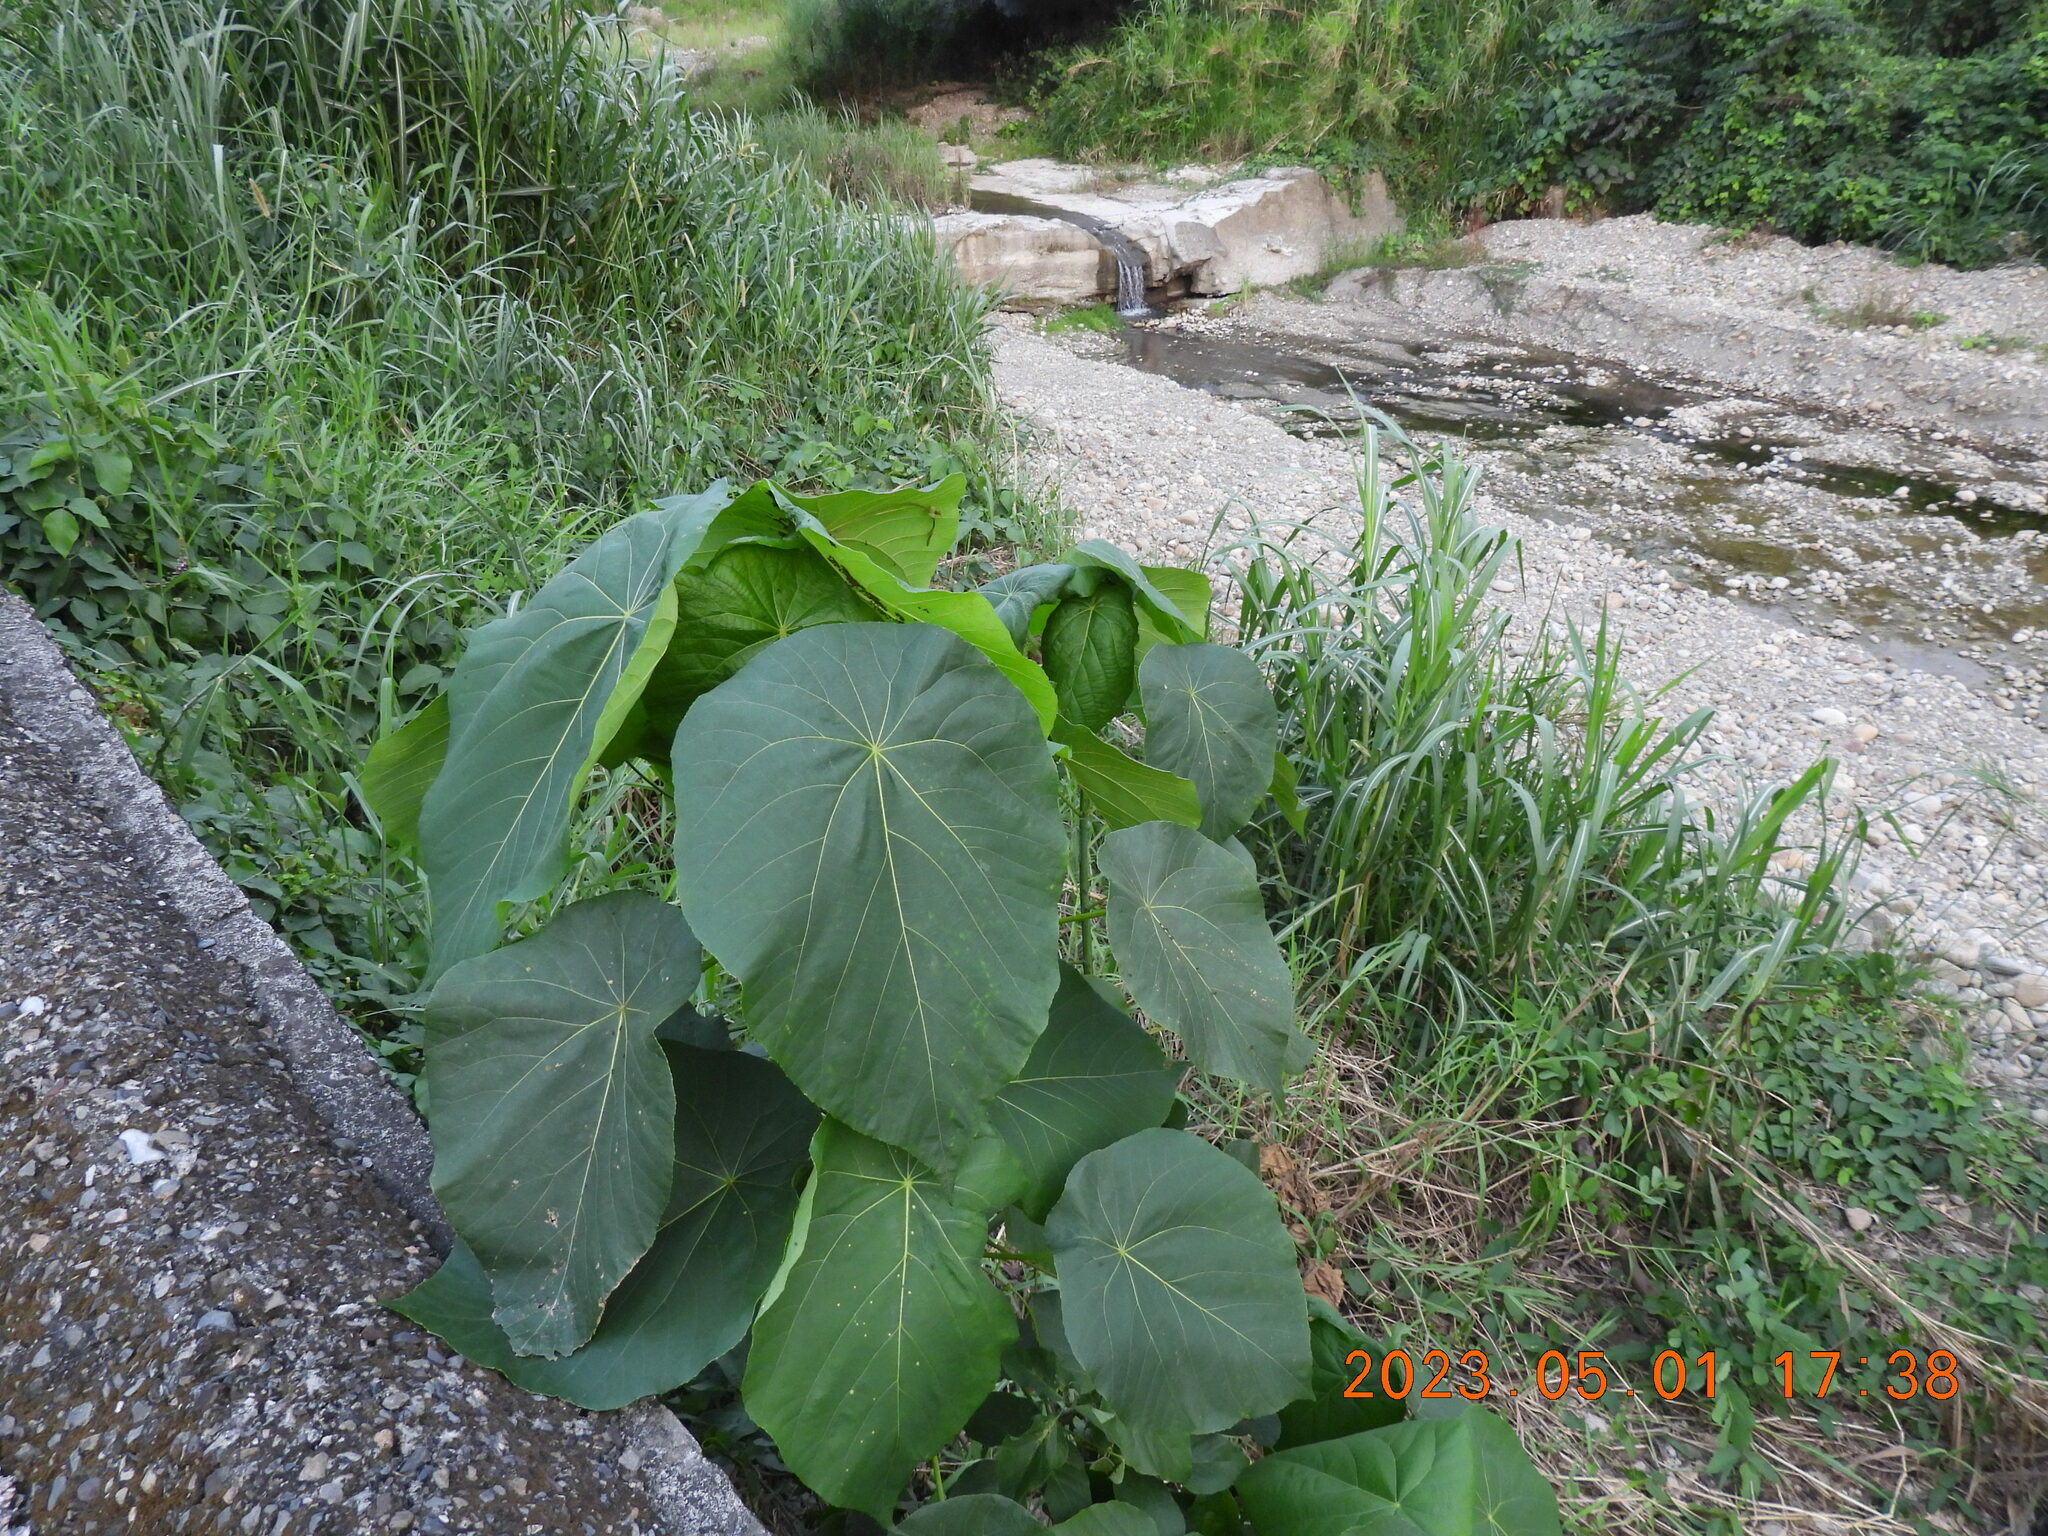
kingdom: Plantae
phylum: Tracheophyta
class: Magnoliopsida
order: Malpighiales
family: Euphorbiaceae
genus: Macaranga
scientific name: Macaranga tanarius
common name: Parasol leaf tree
